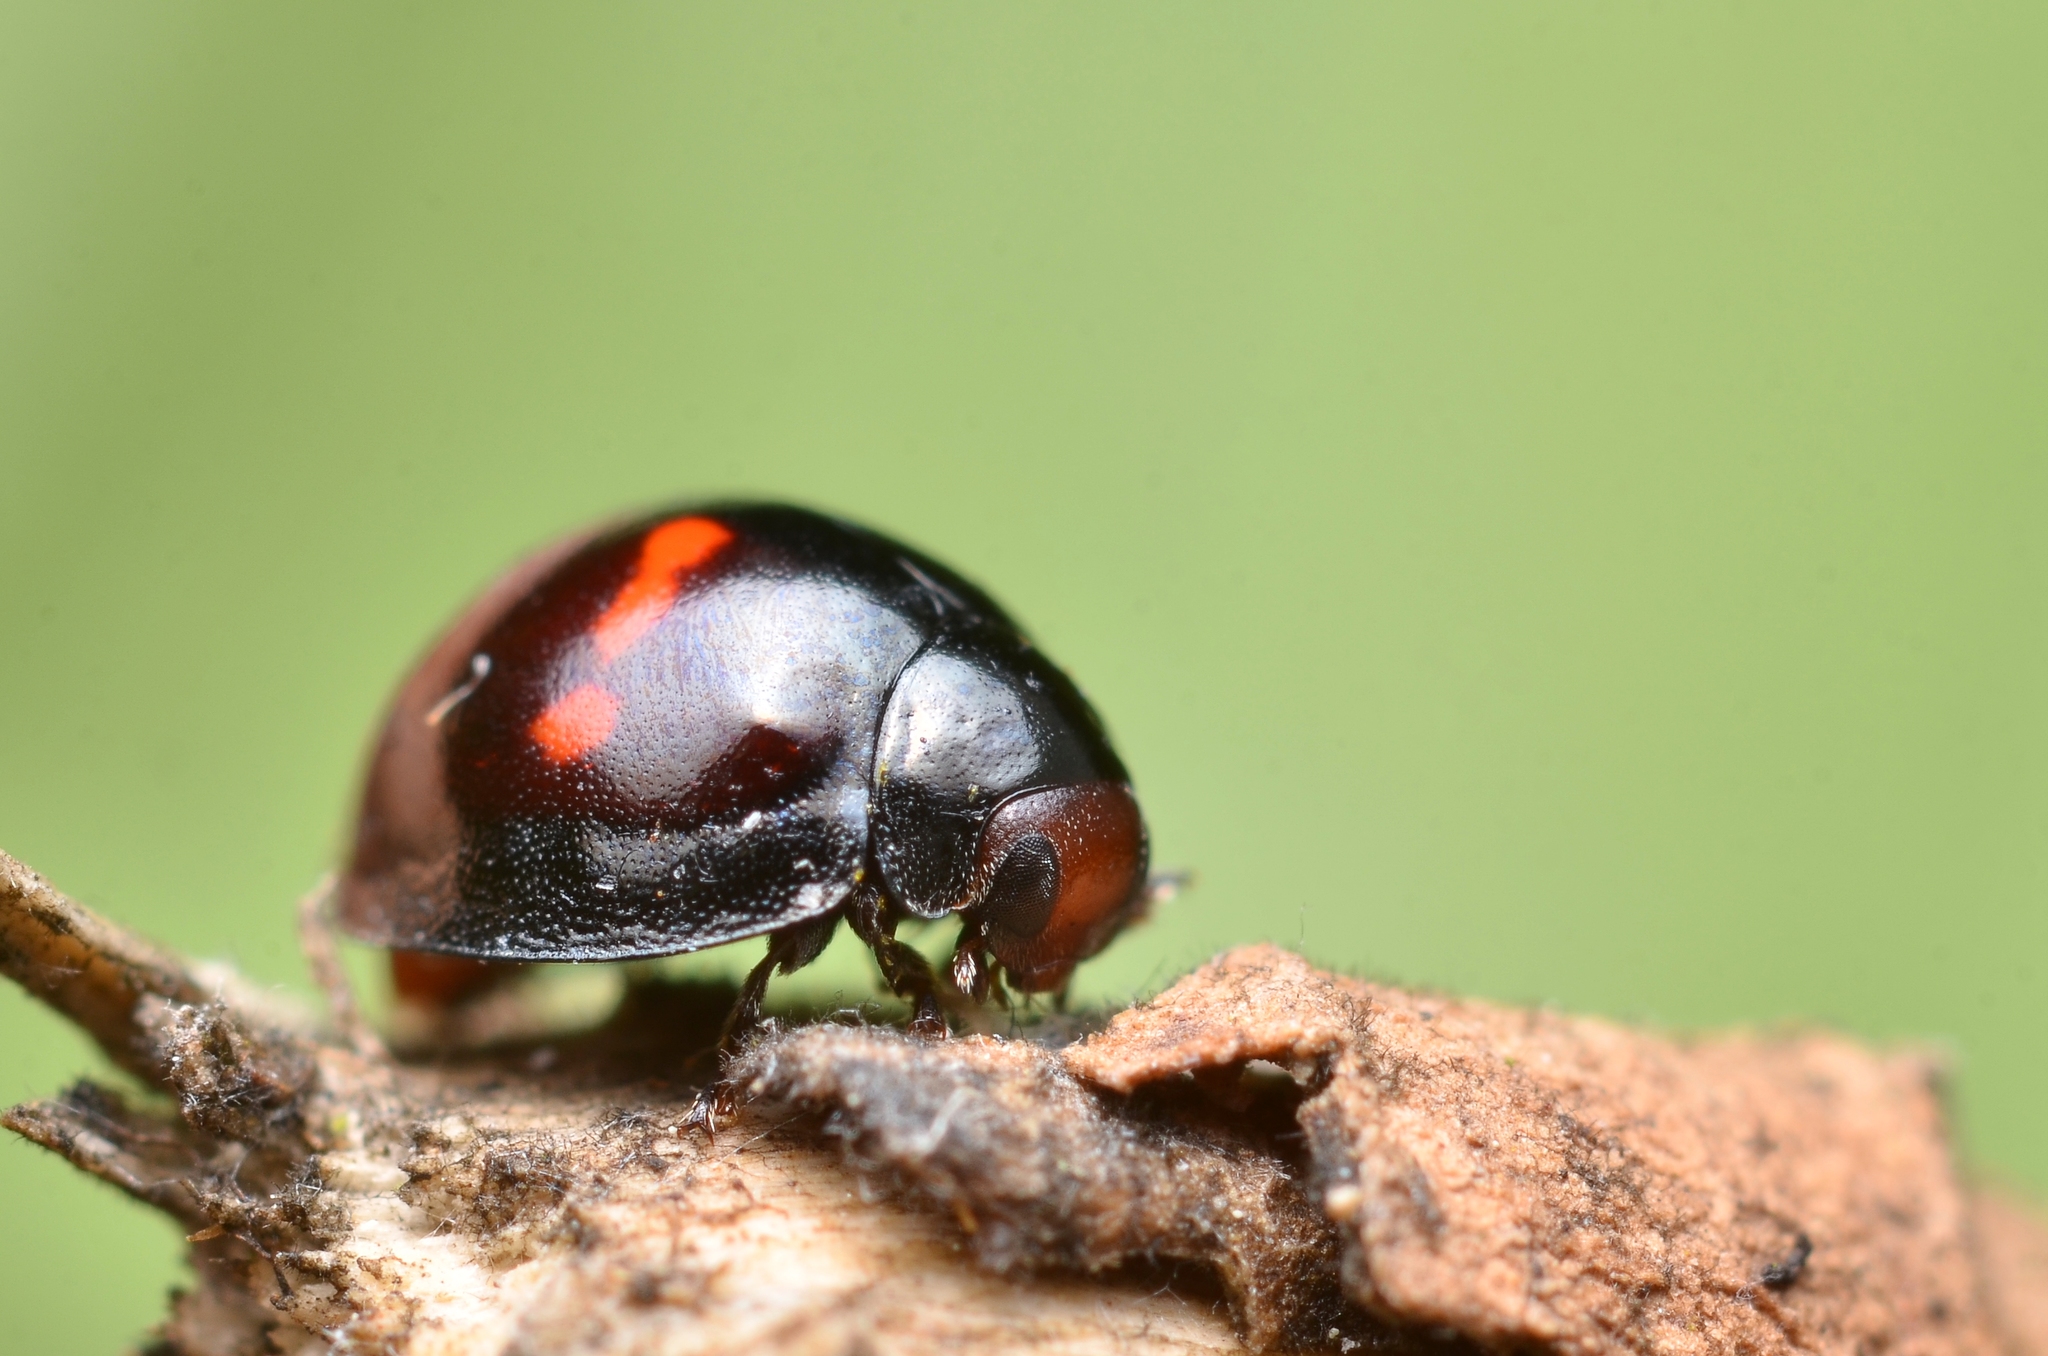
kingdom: Animalia
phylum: Arthropoda
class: Insecta
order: Coleoptera
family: Coccinellidae
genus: Chilocorus
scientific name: Chilocorus bipustulatus
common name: Heather ladybird
